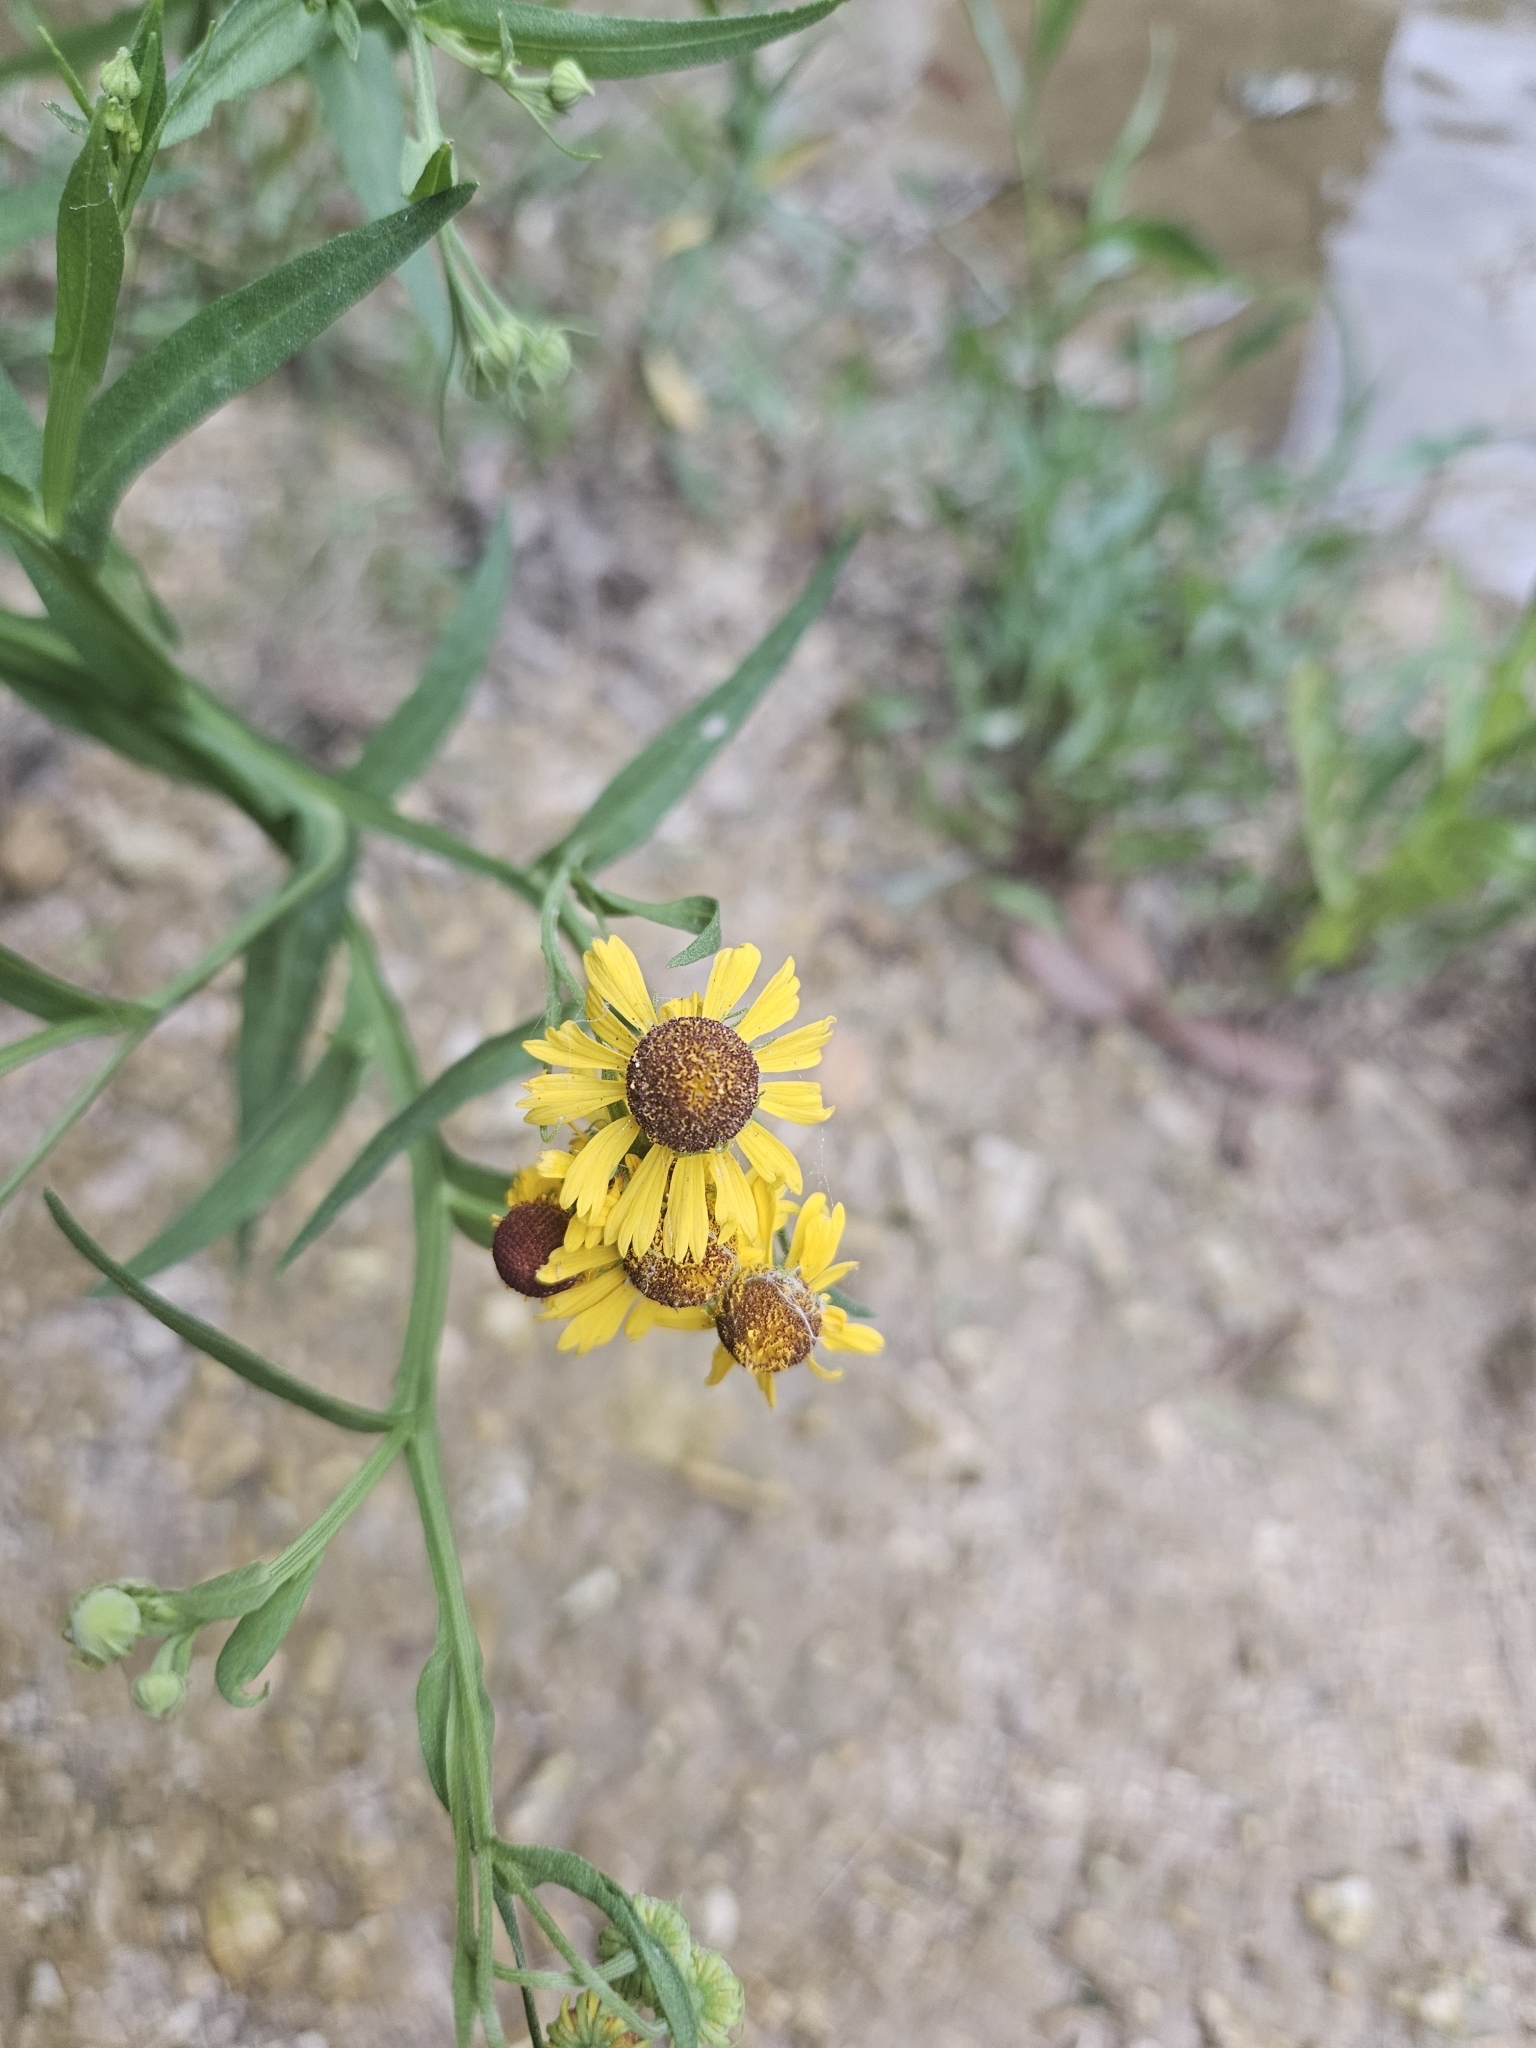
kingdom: Plantae
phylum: Tracheophyta
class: Magnoliopsida
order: Asterales
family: Asteraceae
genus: Helenium
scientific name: Helenium elegans
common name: Pretty sneezeweed
